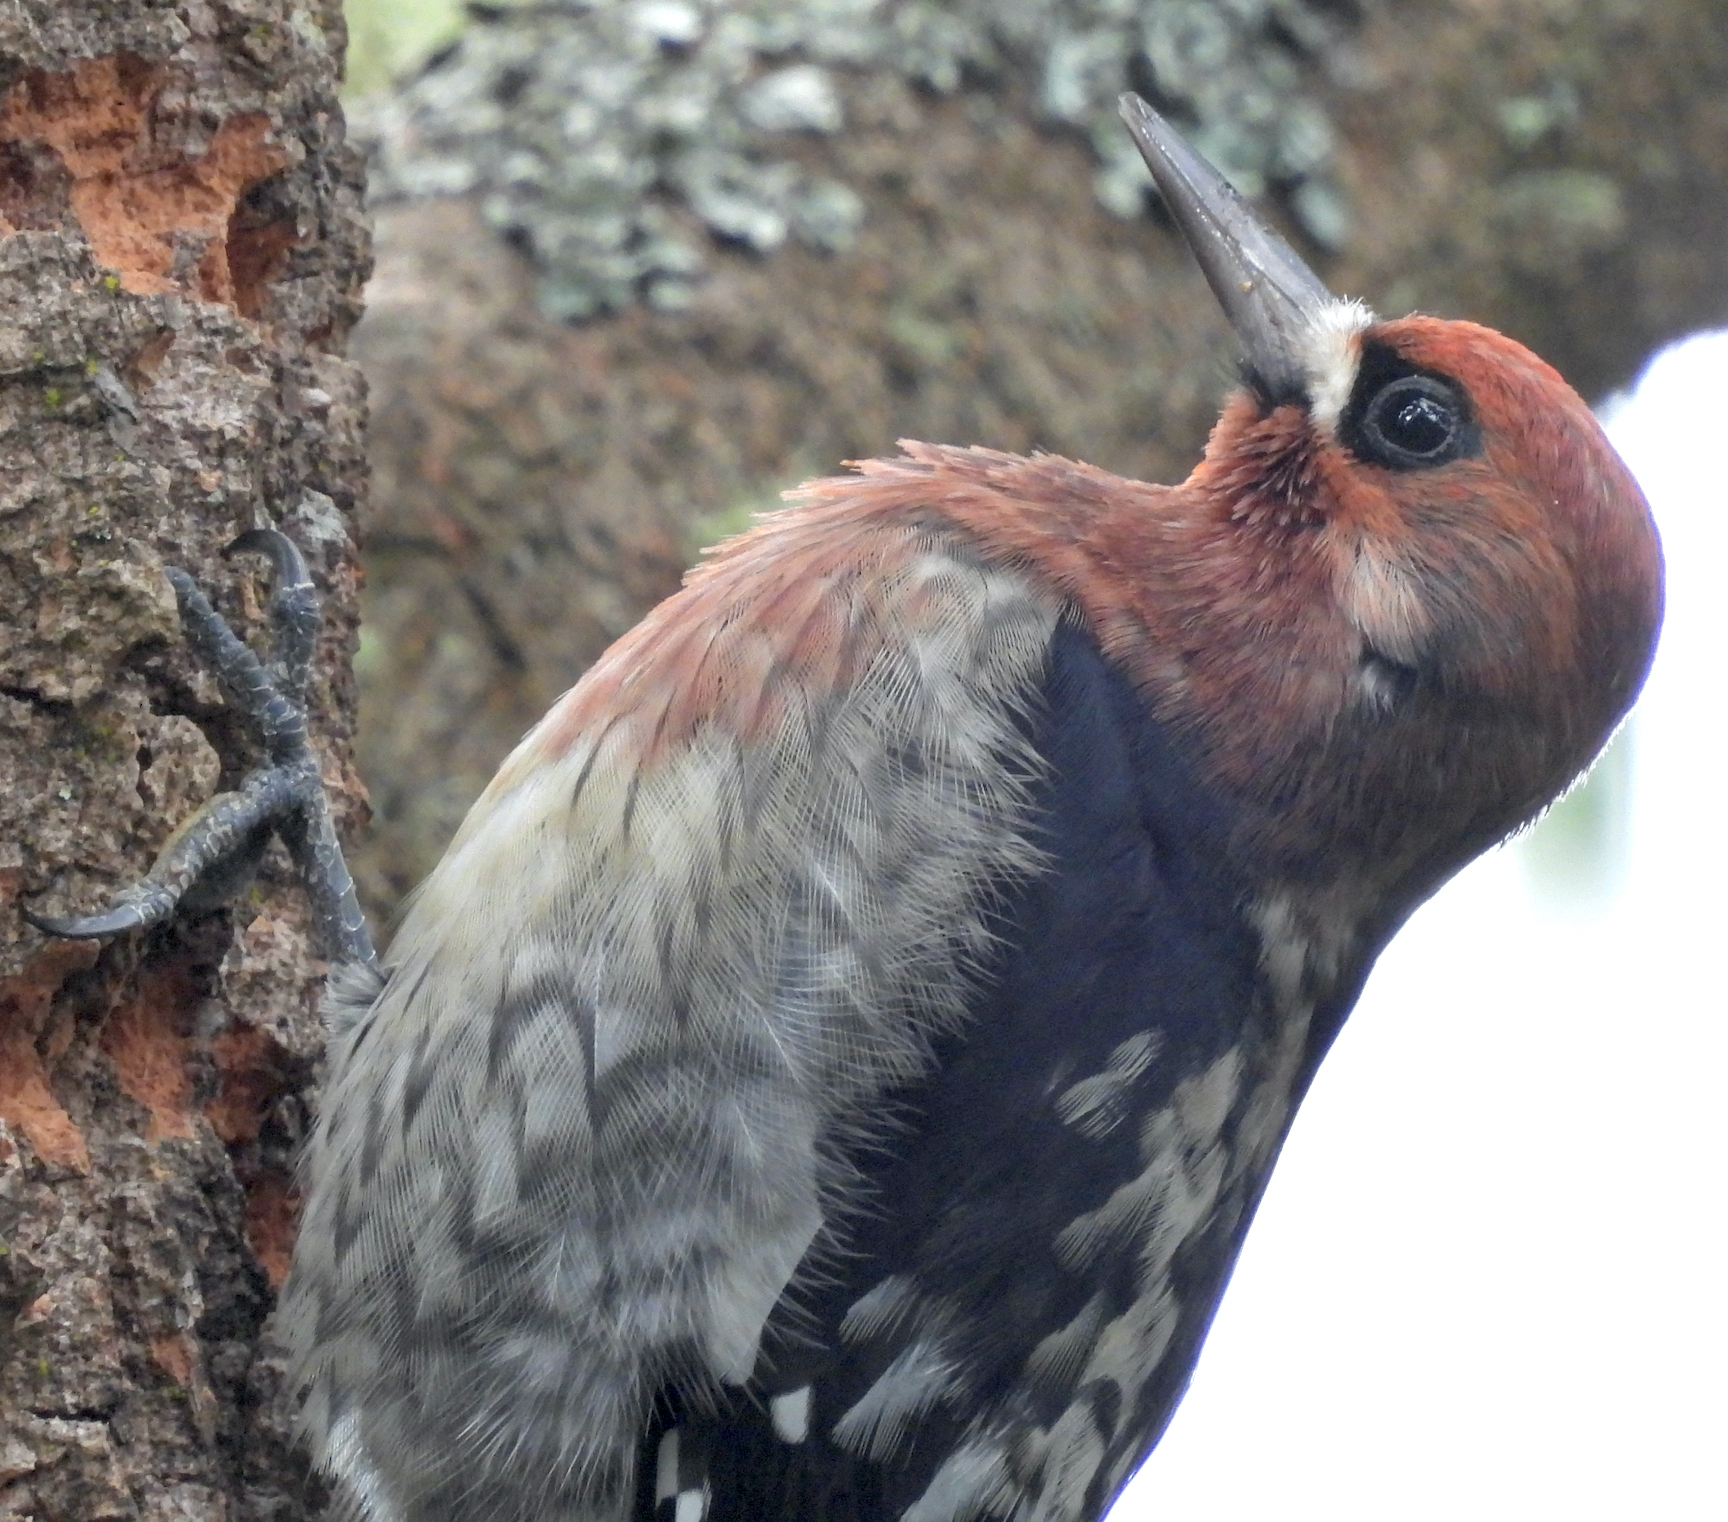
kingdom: Animalia
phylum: Chordata
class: Aves
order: Piciformes
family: Picidae
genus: Sphyrapicus
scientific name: Sphyrapicus ruber
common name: Red-breasted sapsucker
